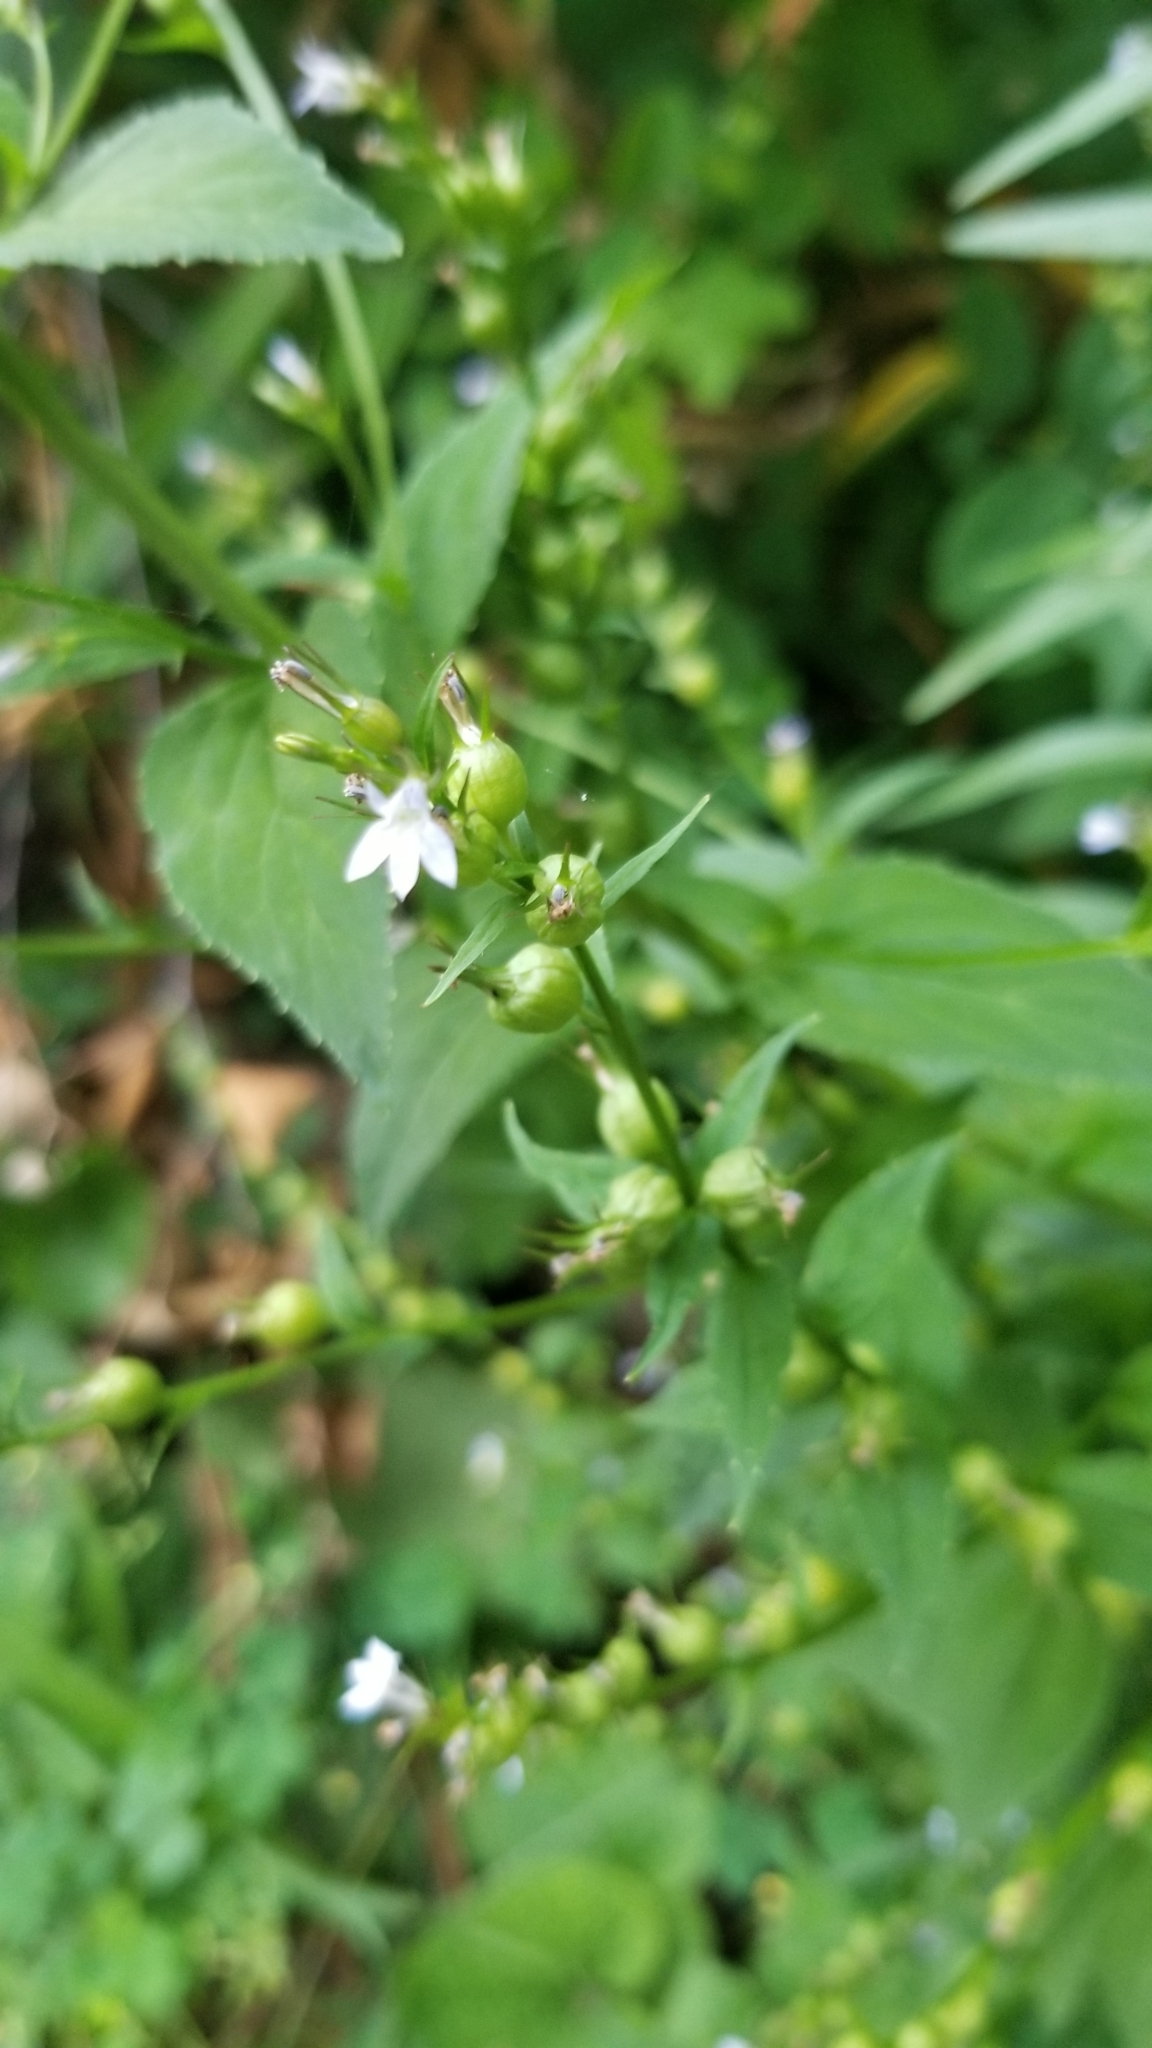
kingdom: Plantae
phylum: Tracheophyta
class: Magnoliopsida
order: Asterales
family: Campanulaceae
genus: Lobelia
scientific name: Lobelia inflata
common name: Indian tobacco
